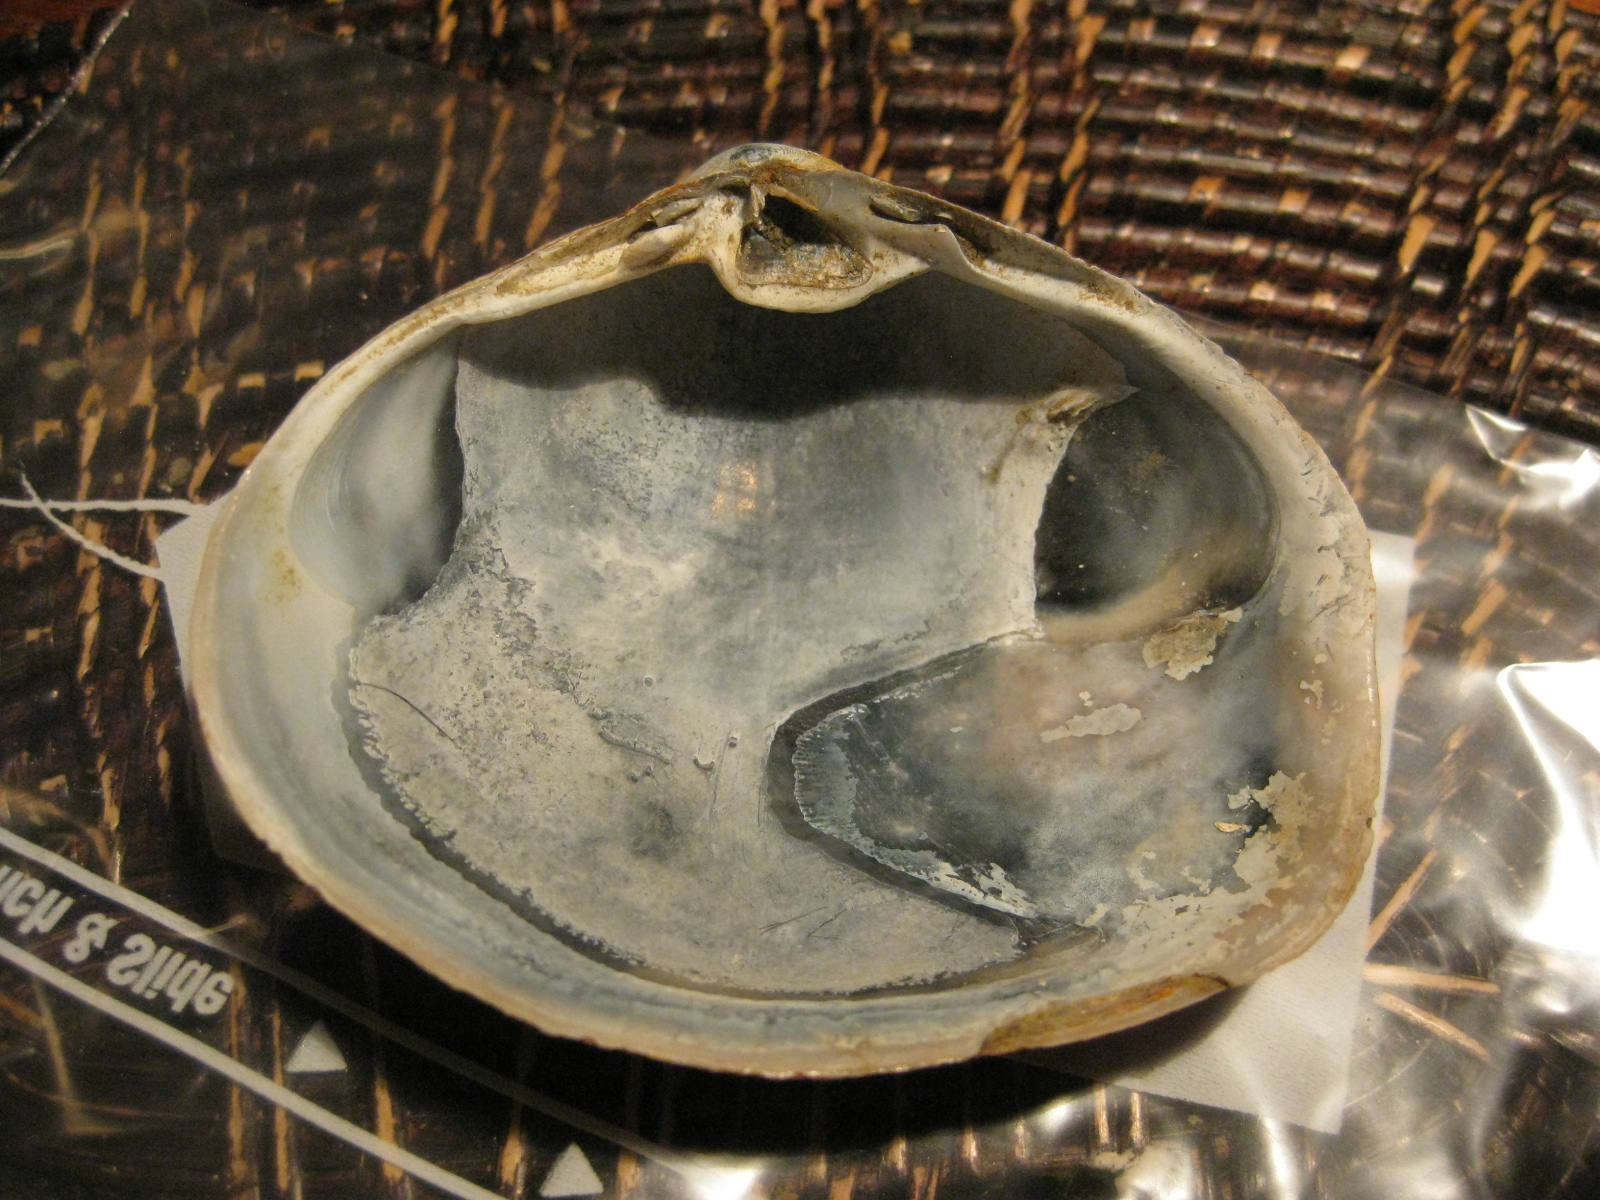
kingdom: Animalia
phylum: Mollusca
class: Bivalvia
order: Venerida
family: Mactridae
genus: Cyclomactra
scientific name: Cyclomactra ovata
